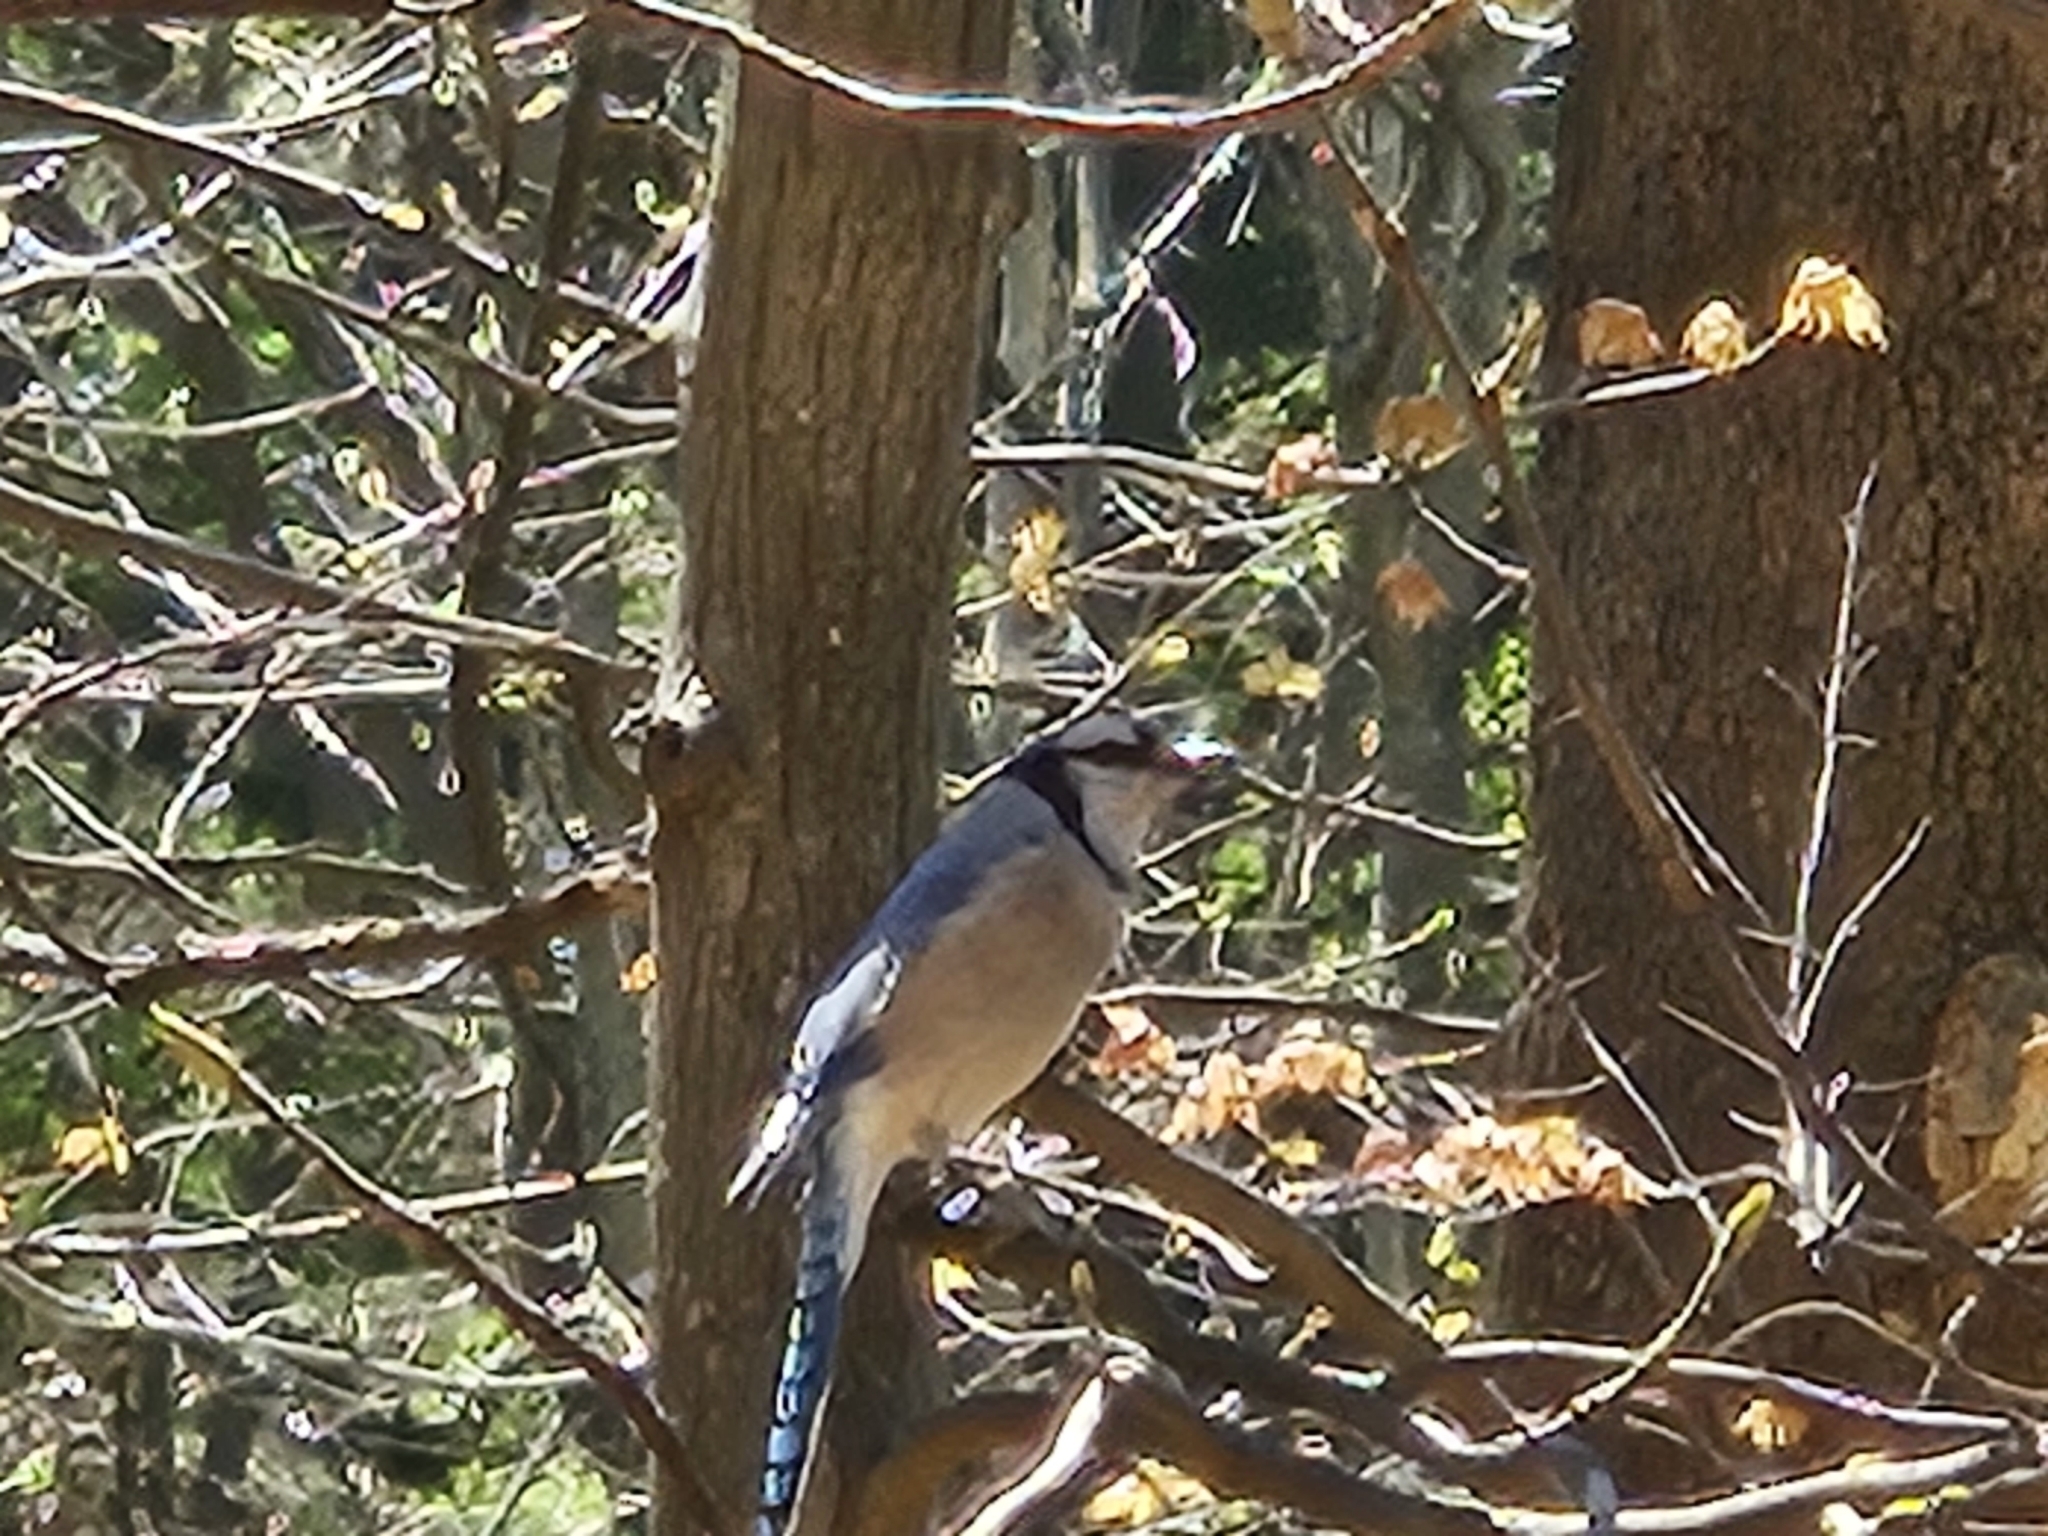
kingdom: Animalia
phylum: Chordata
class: Aves
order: Passeriformes
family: Corvidae
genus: Cyanocitta
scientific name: Cyanocitta cristata
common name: Blue jay
